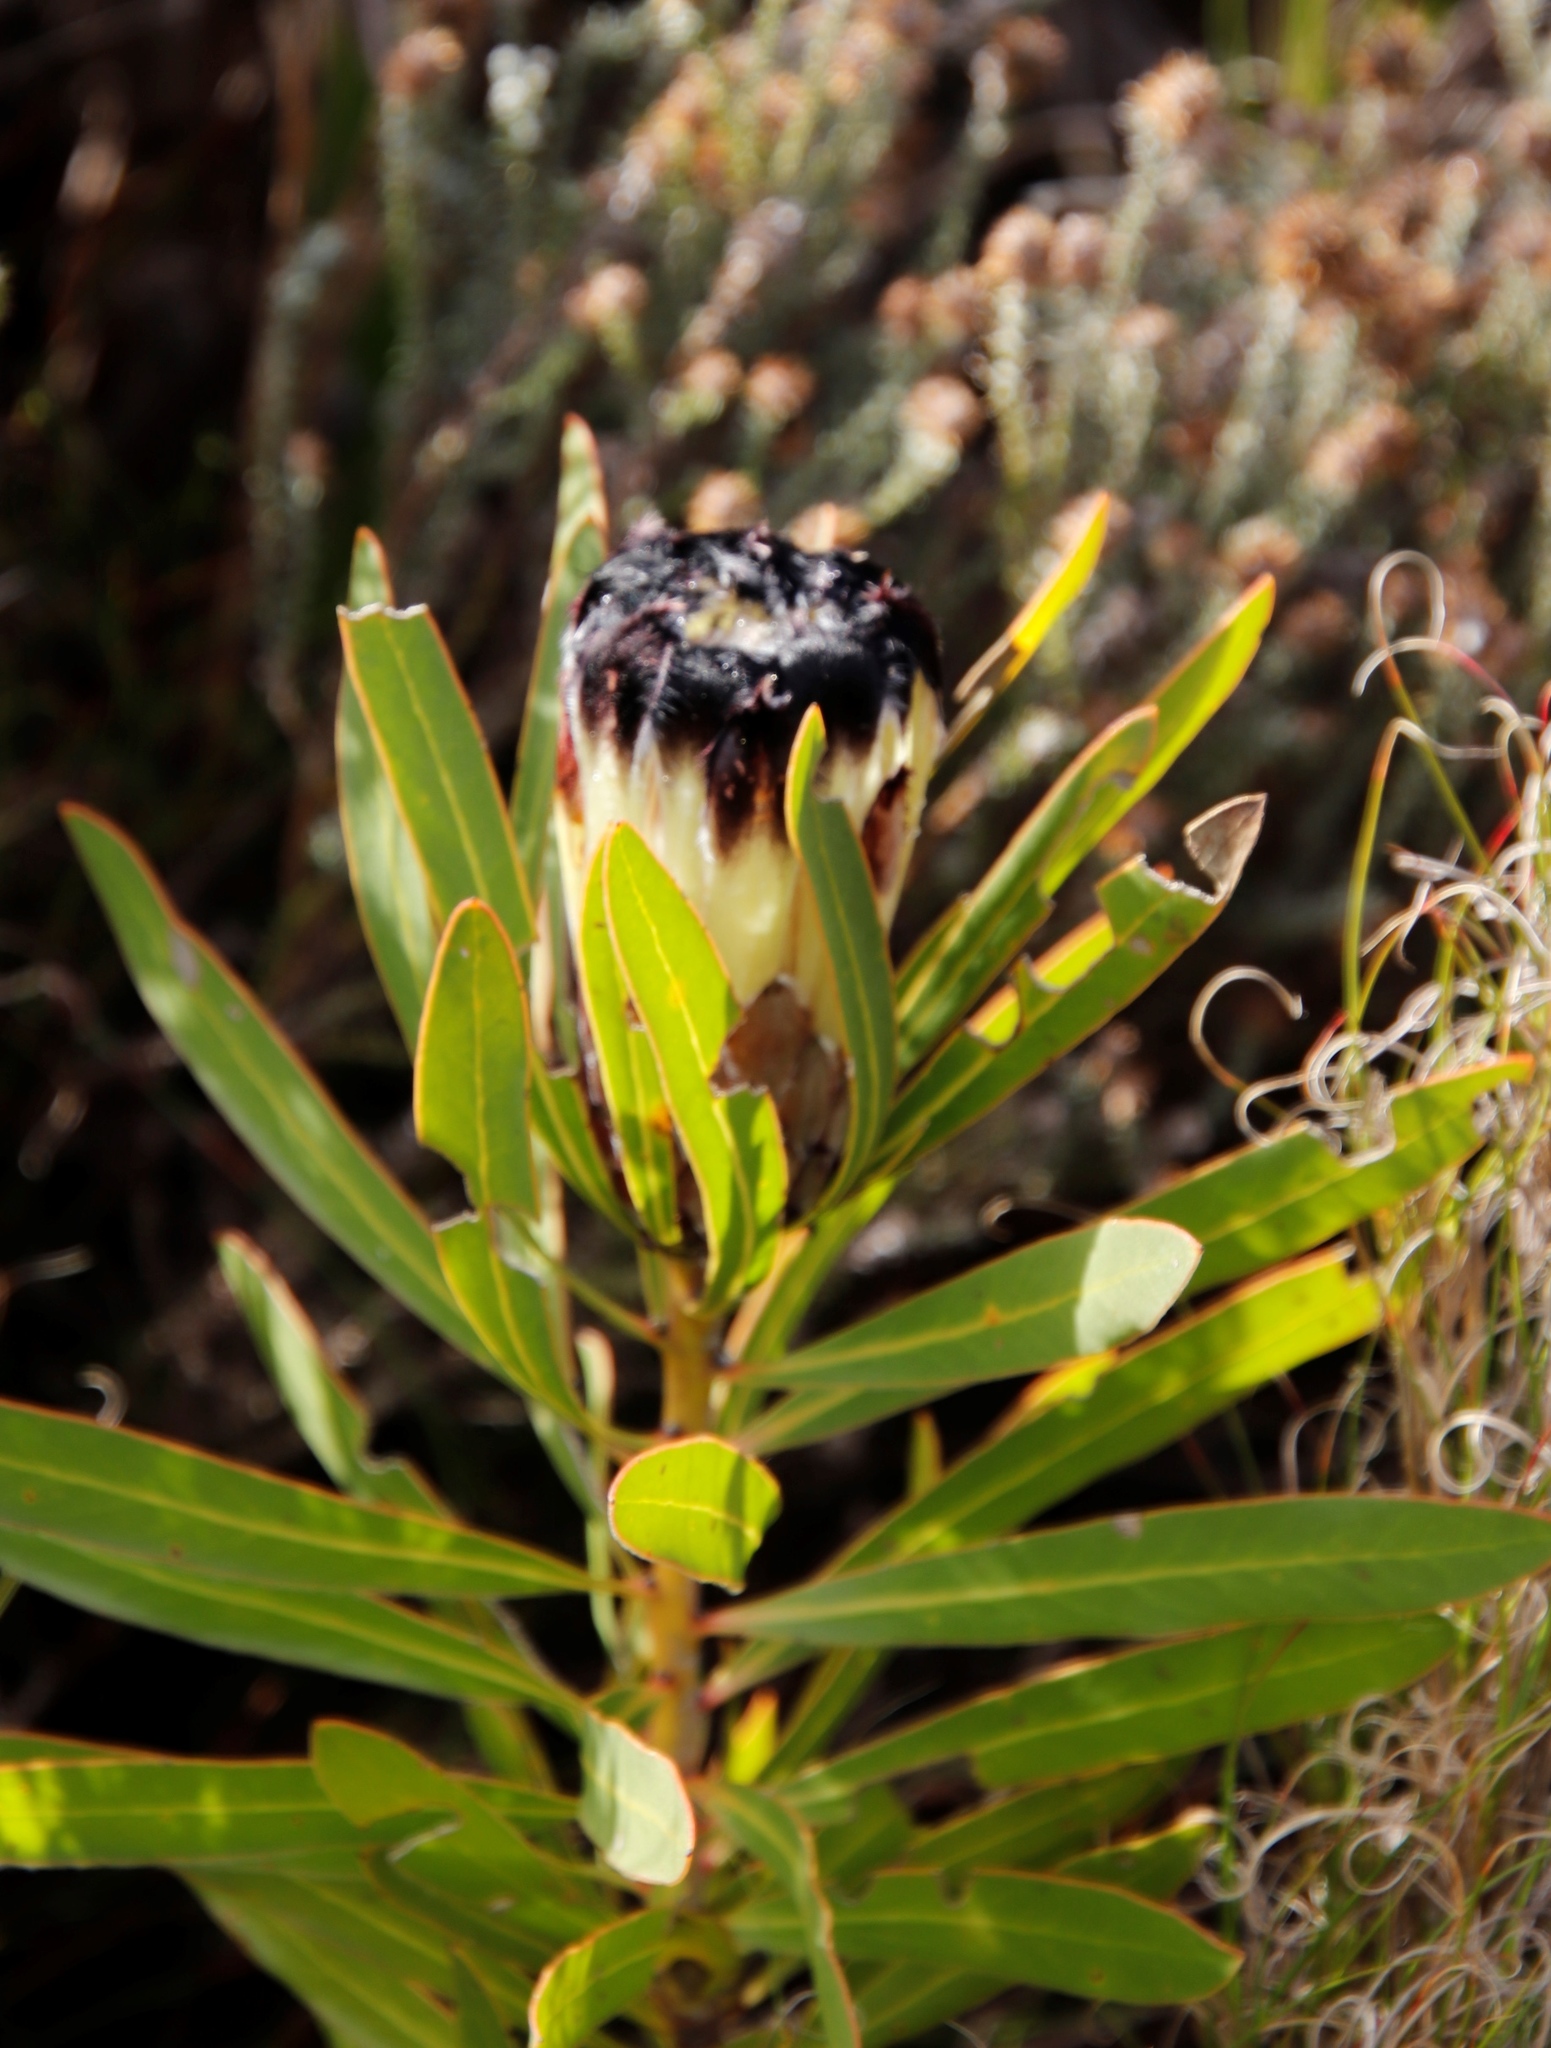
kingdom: Plantae
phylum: Tracheophyta
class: Magnoliopsida
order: Proteales
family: Proteaceae
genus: Protea
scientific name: Protea lepidocarpodendron
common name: Black-bearded protea
